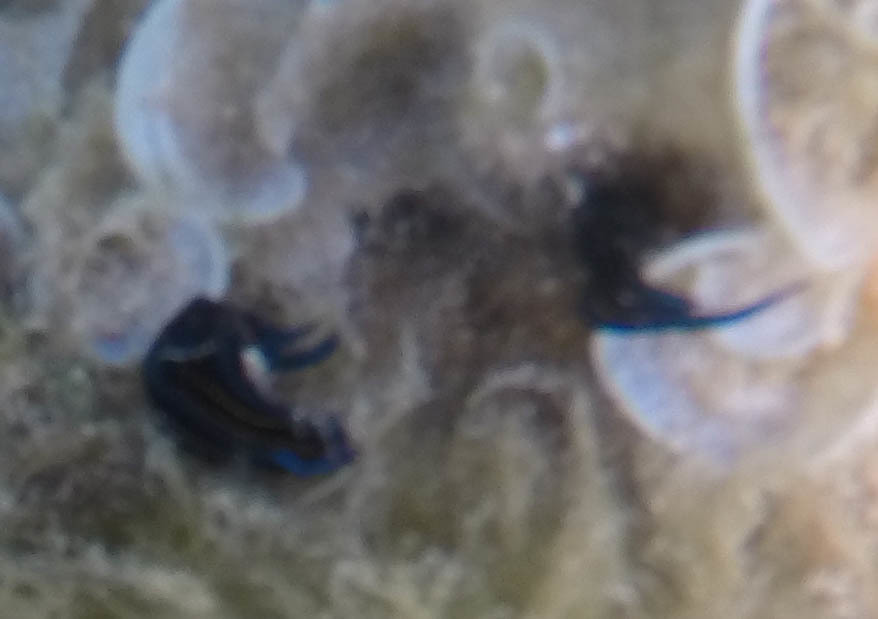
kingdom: Animalia
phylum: Mollusca
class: Gastropoda
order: Cephalaspidea
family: Aglajidae
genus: Chelidonura
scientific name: Chelidonura hirundinina
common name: Leech headshield slug
